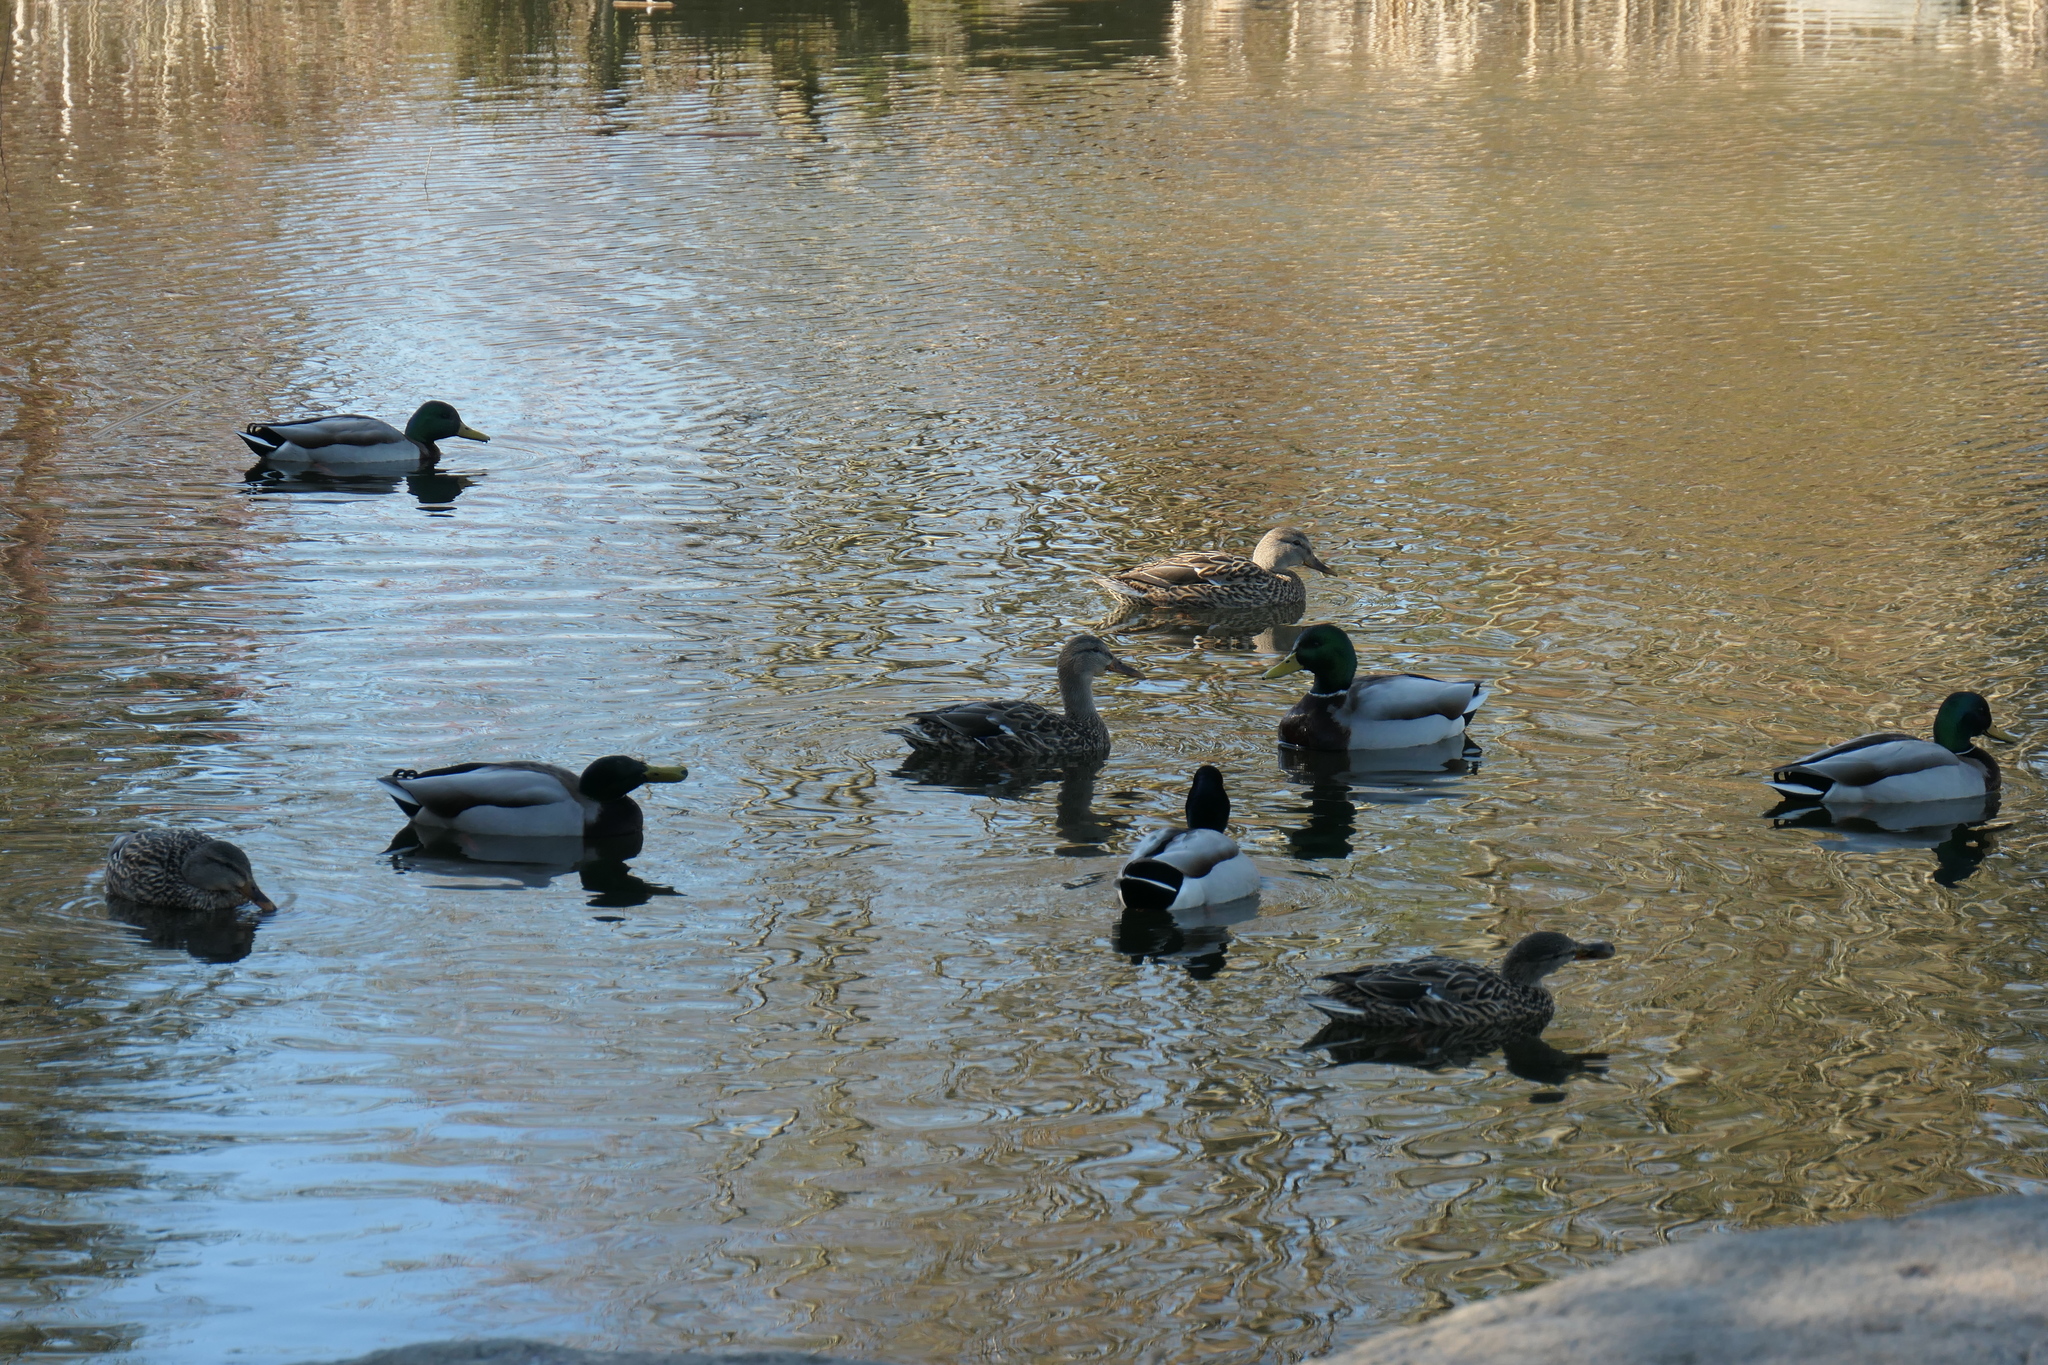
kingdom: Animalia
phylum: Chordata
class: Aves
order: Anseriformes
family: Anatidae
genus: Anas
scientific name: Anas platyrhynchos
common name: Mallard
